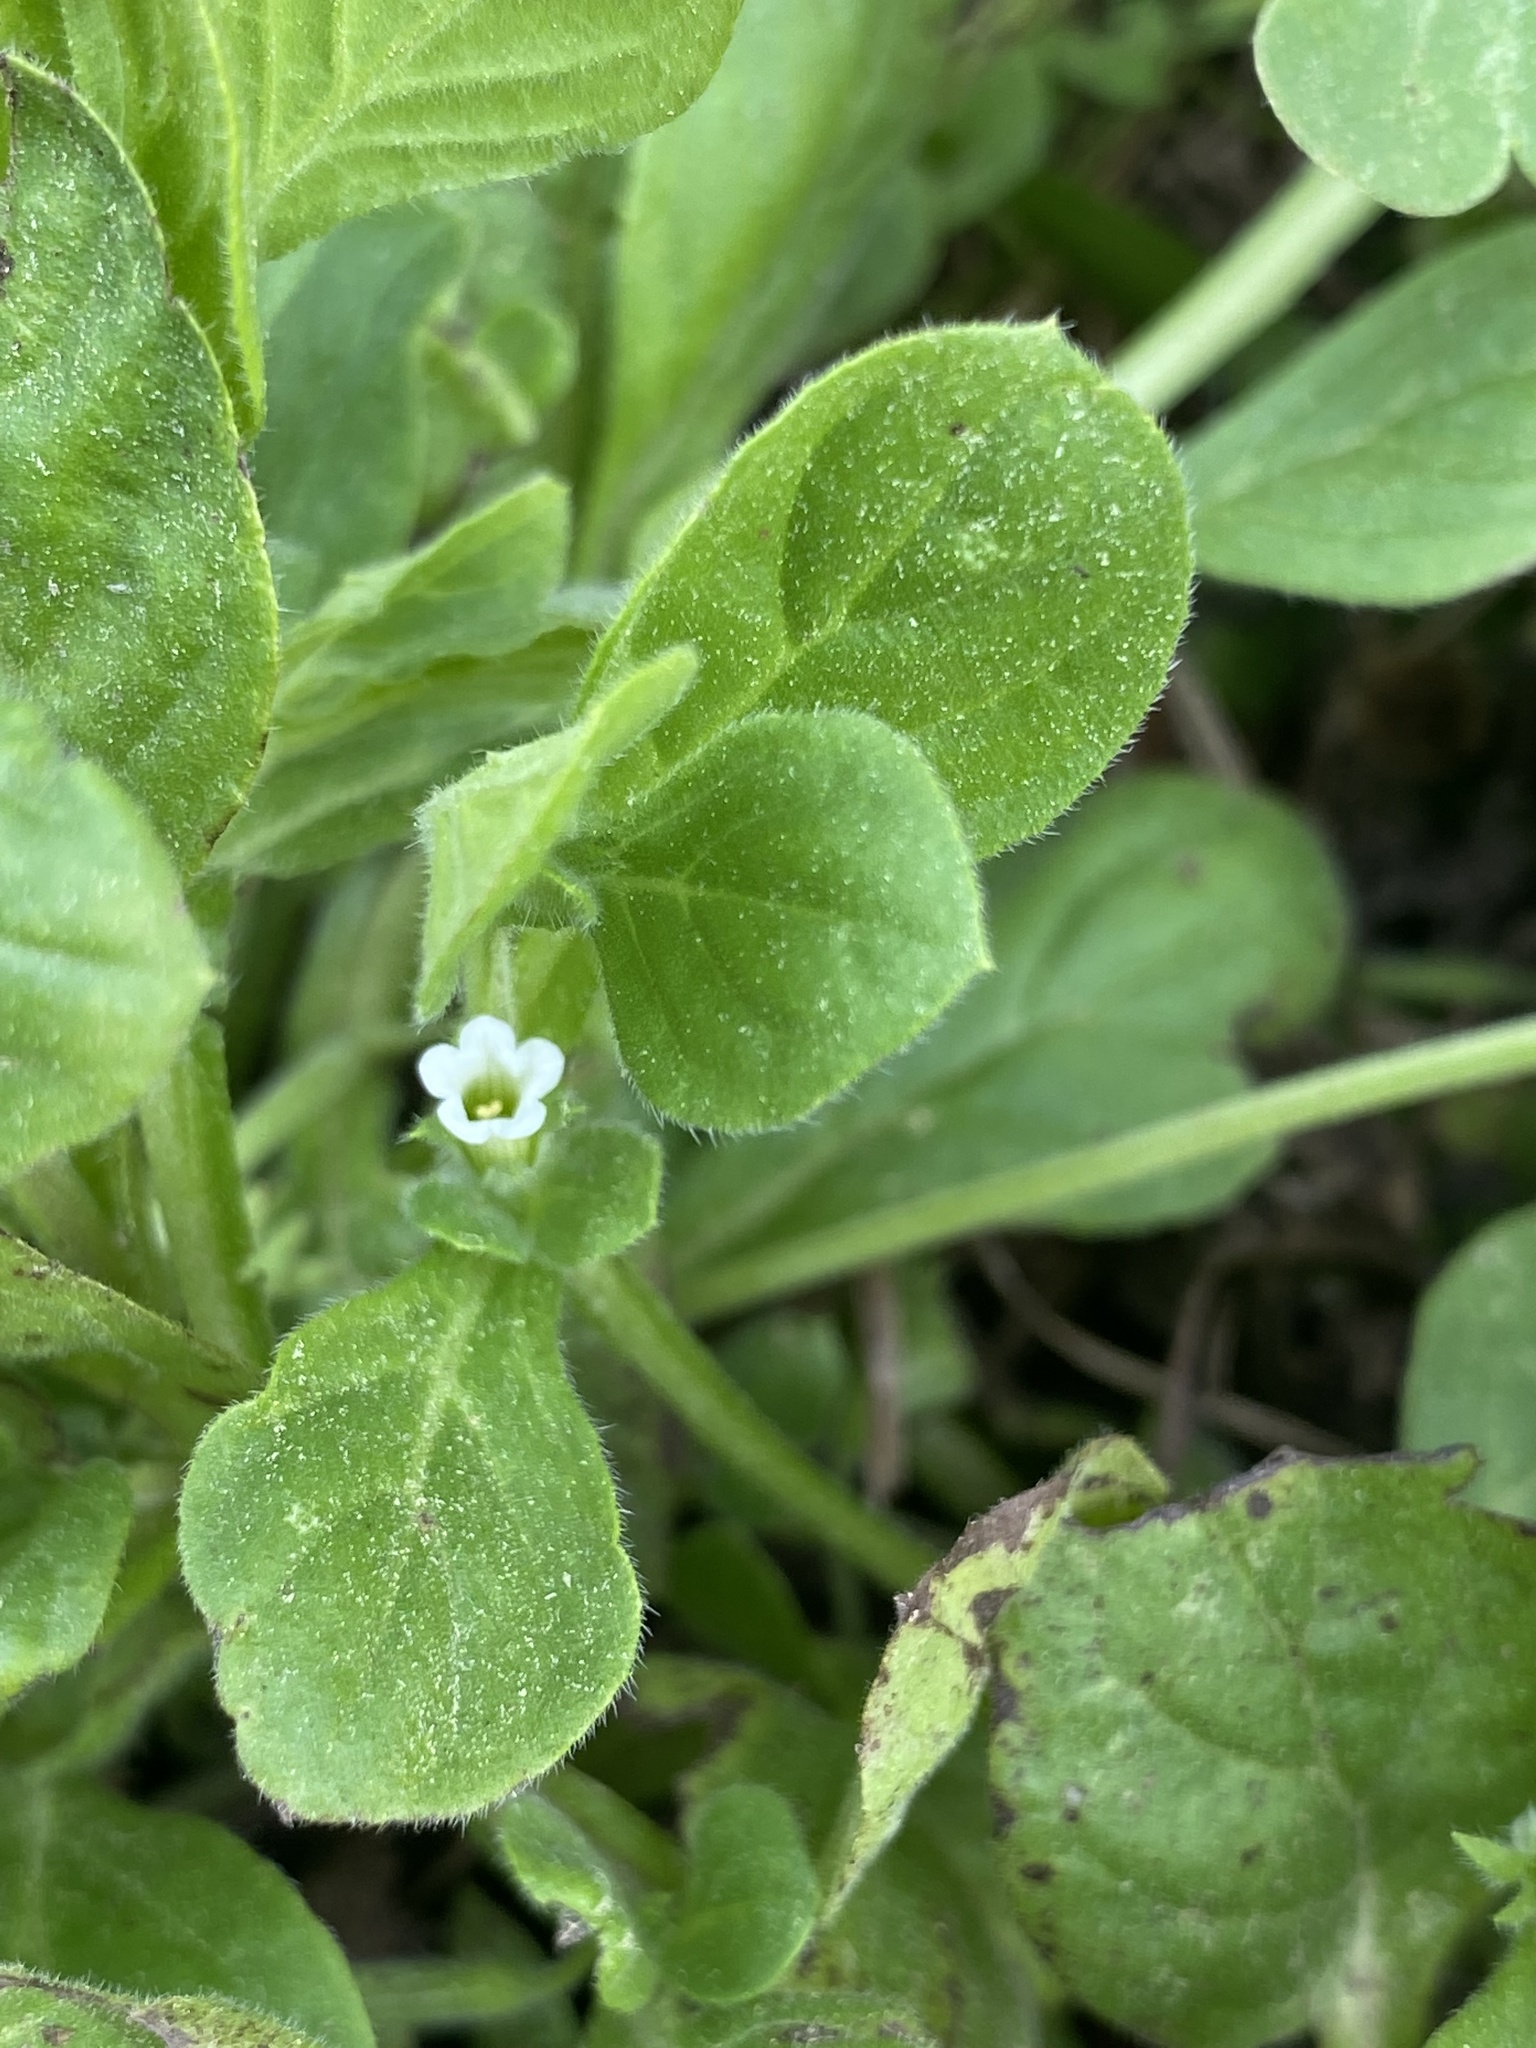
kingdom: Plantae
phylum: Tracheophyta
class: Magnoliopsida
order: Boraginales
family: Namaceae
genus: Nama
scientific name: Nama jamaicensis
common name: Jamaicanweed
